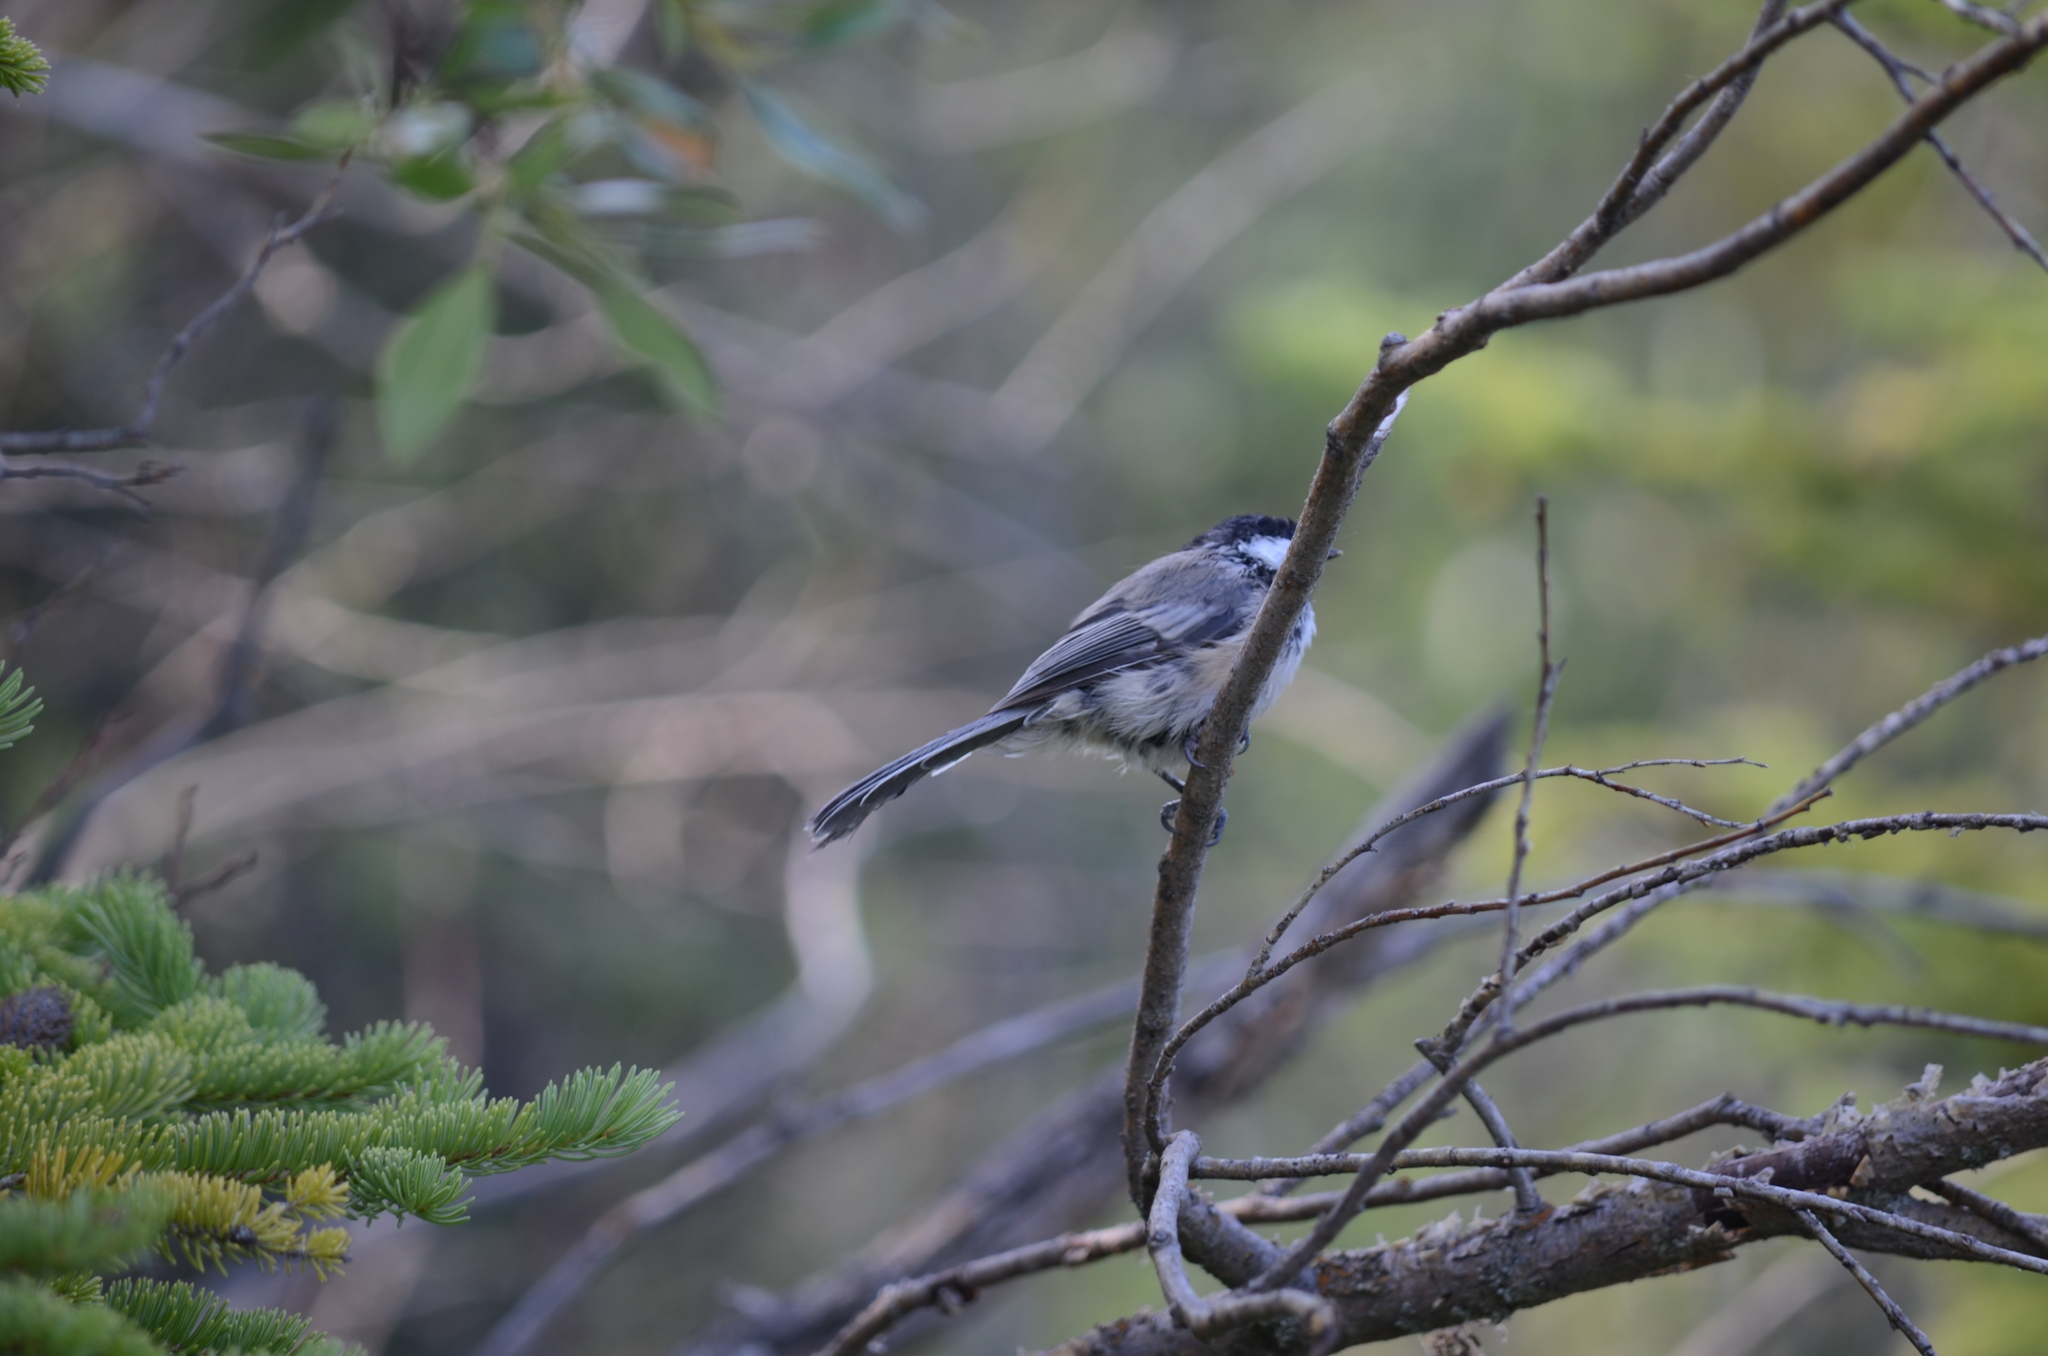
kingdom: Animalia
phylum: Chordata
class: Aves
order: Passeriformes
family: Paridae
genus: Poecile
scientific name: Poecile atricapillus
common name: Black-capped chickadee
